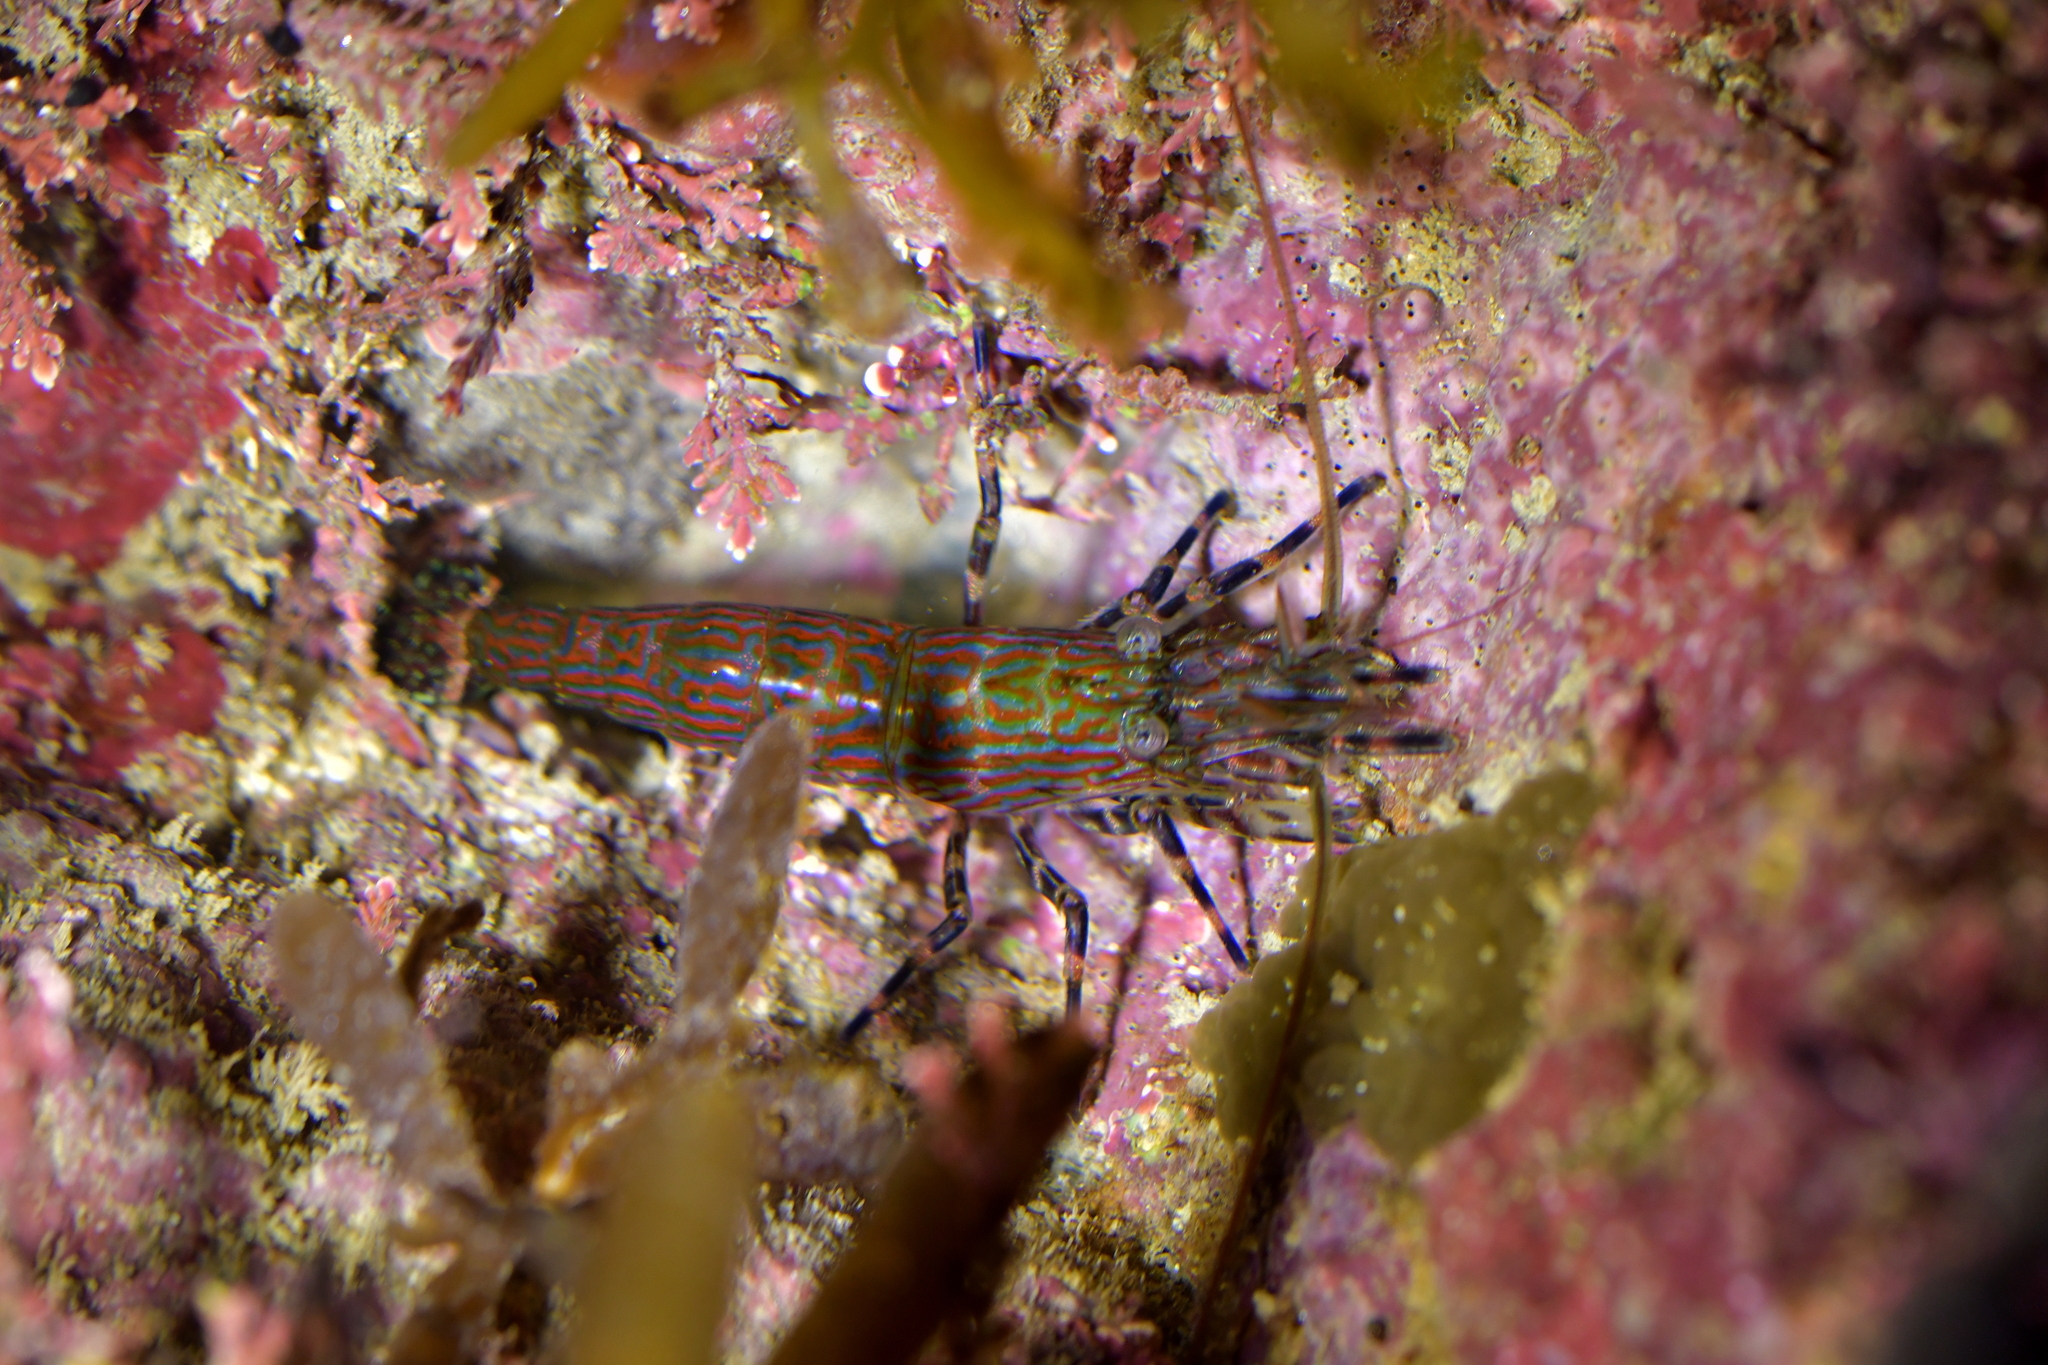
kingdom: Animalia
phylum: Arthropoda
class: Malacostraca
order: Decapoda
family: Hippolytidae
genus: Alope
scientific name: Alope spinifrons
